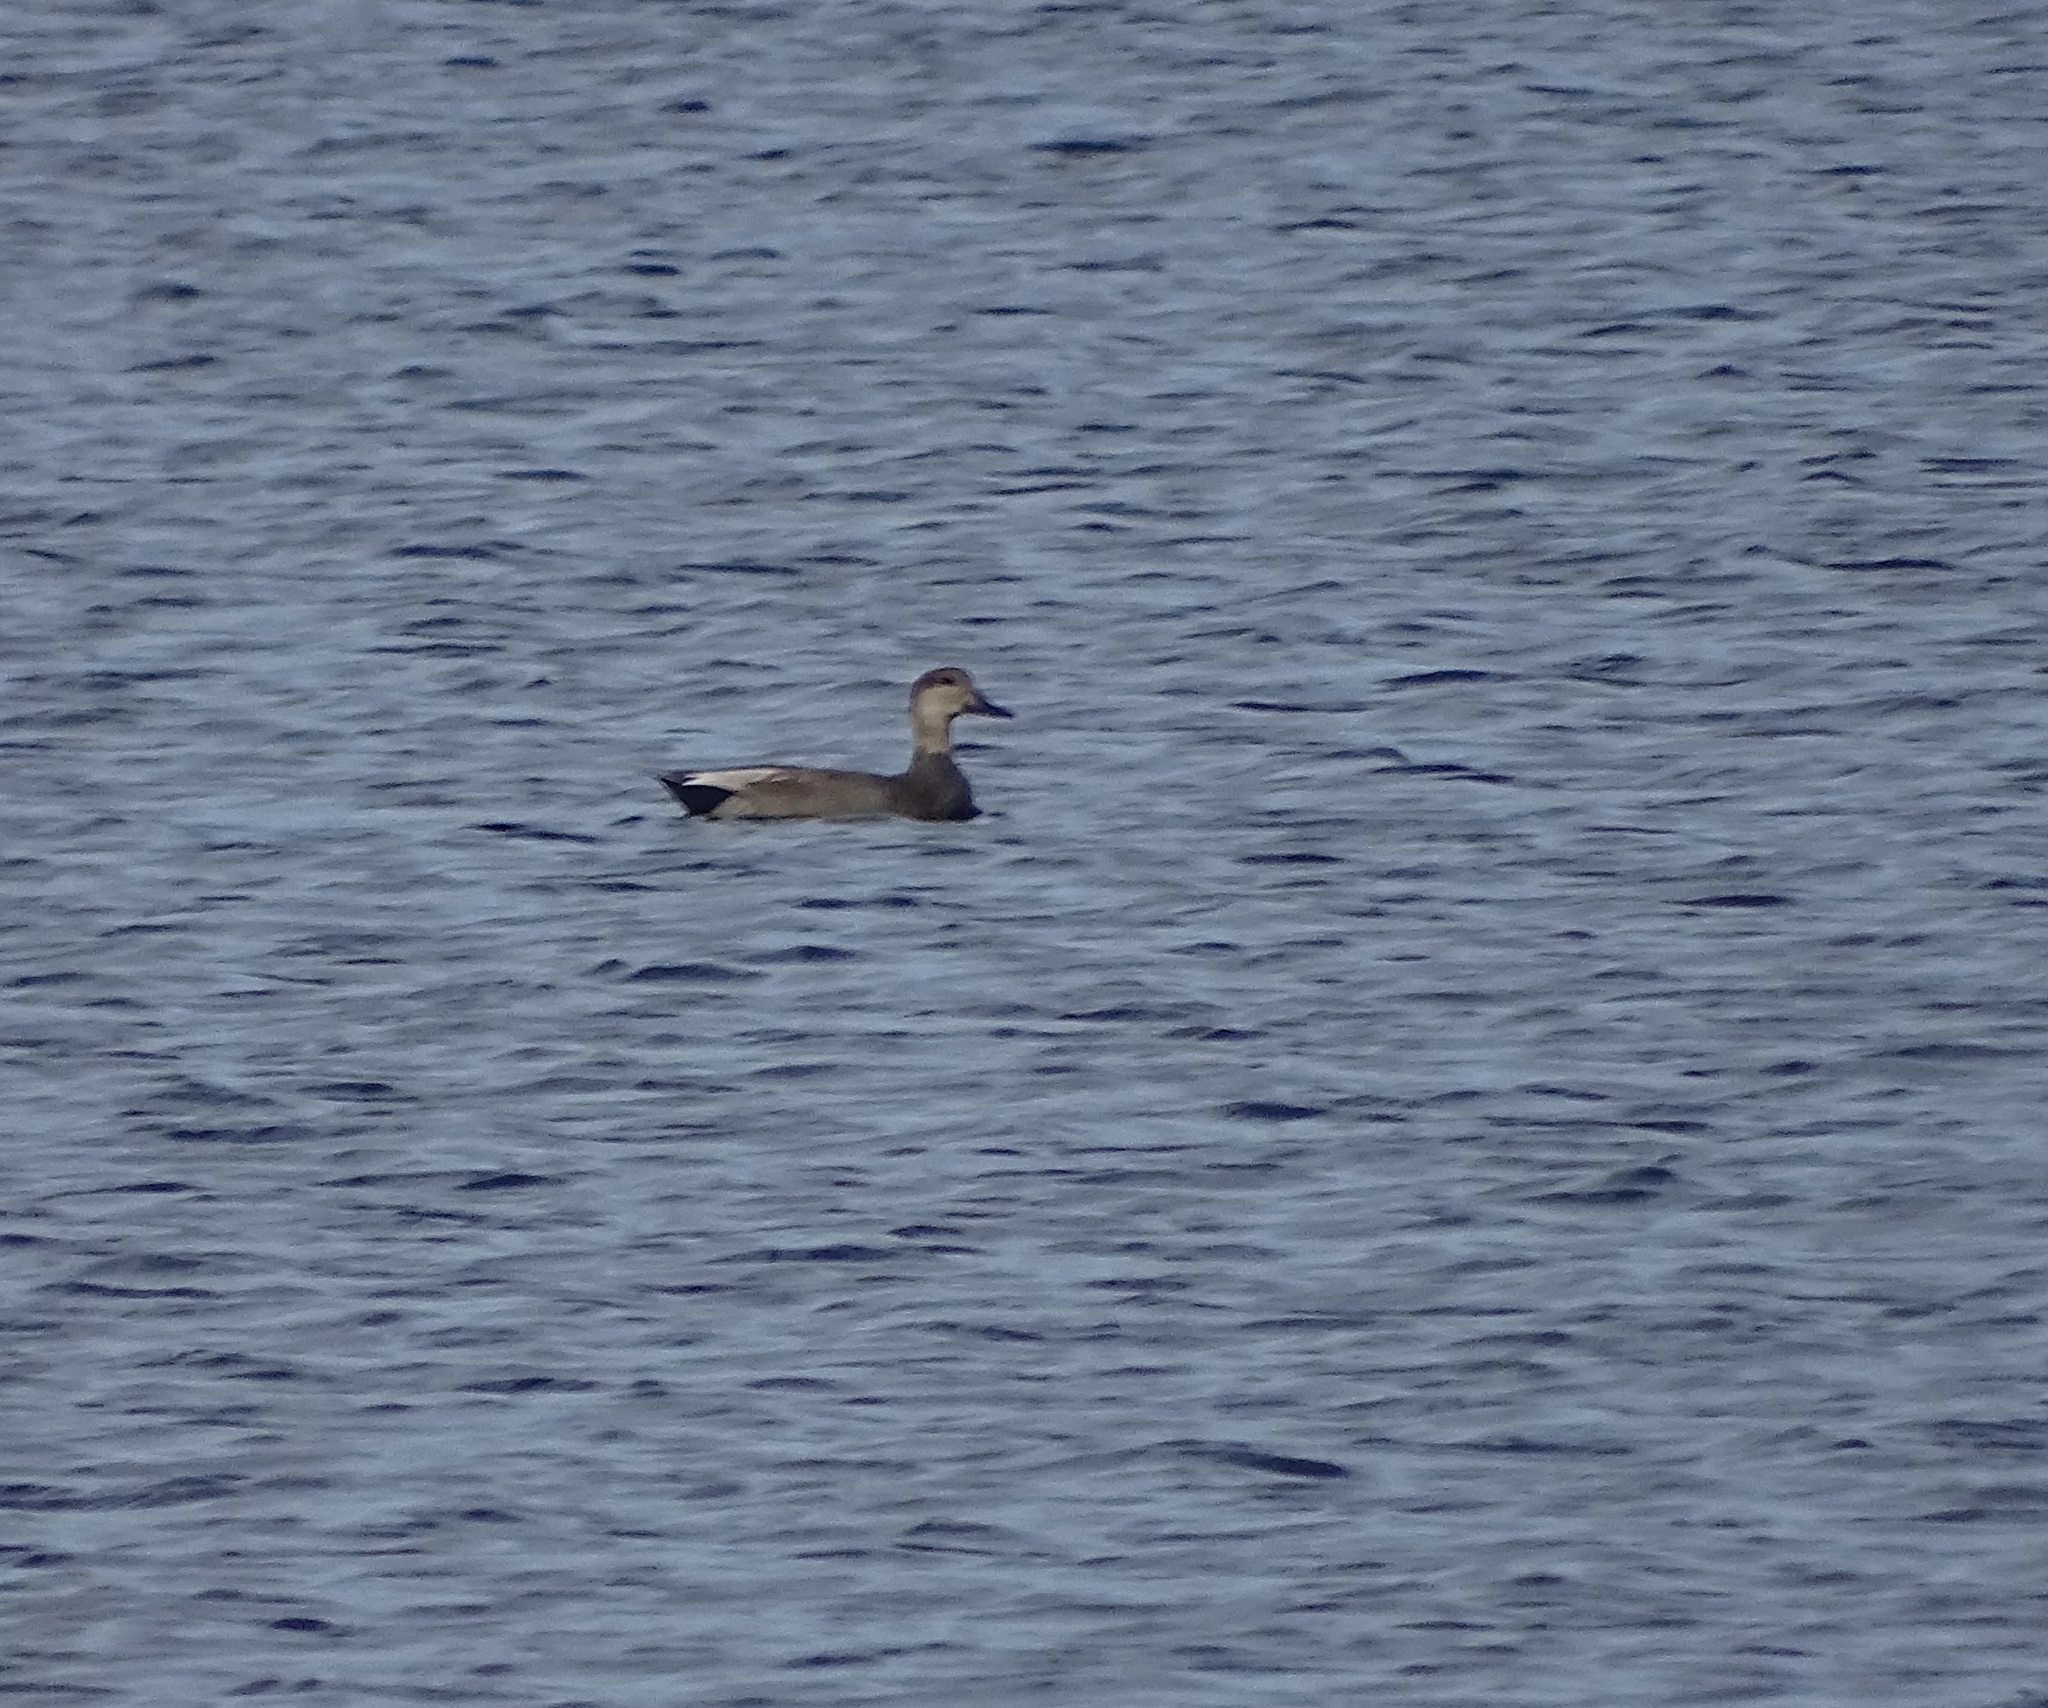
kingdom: Animalia
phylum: Chordata
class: Aves
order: Anseriformes
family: Anatidae
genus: Mareca
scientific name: Mareca strepera
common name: Gadwall
